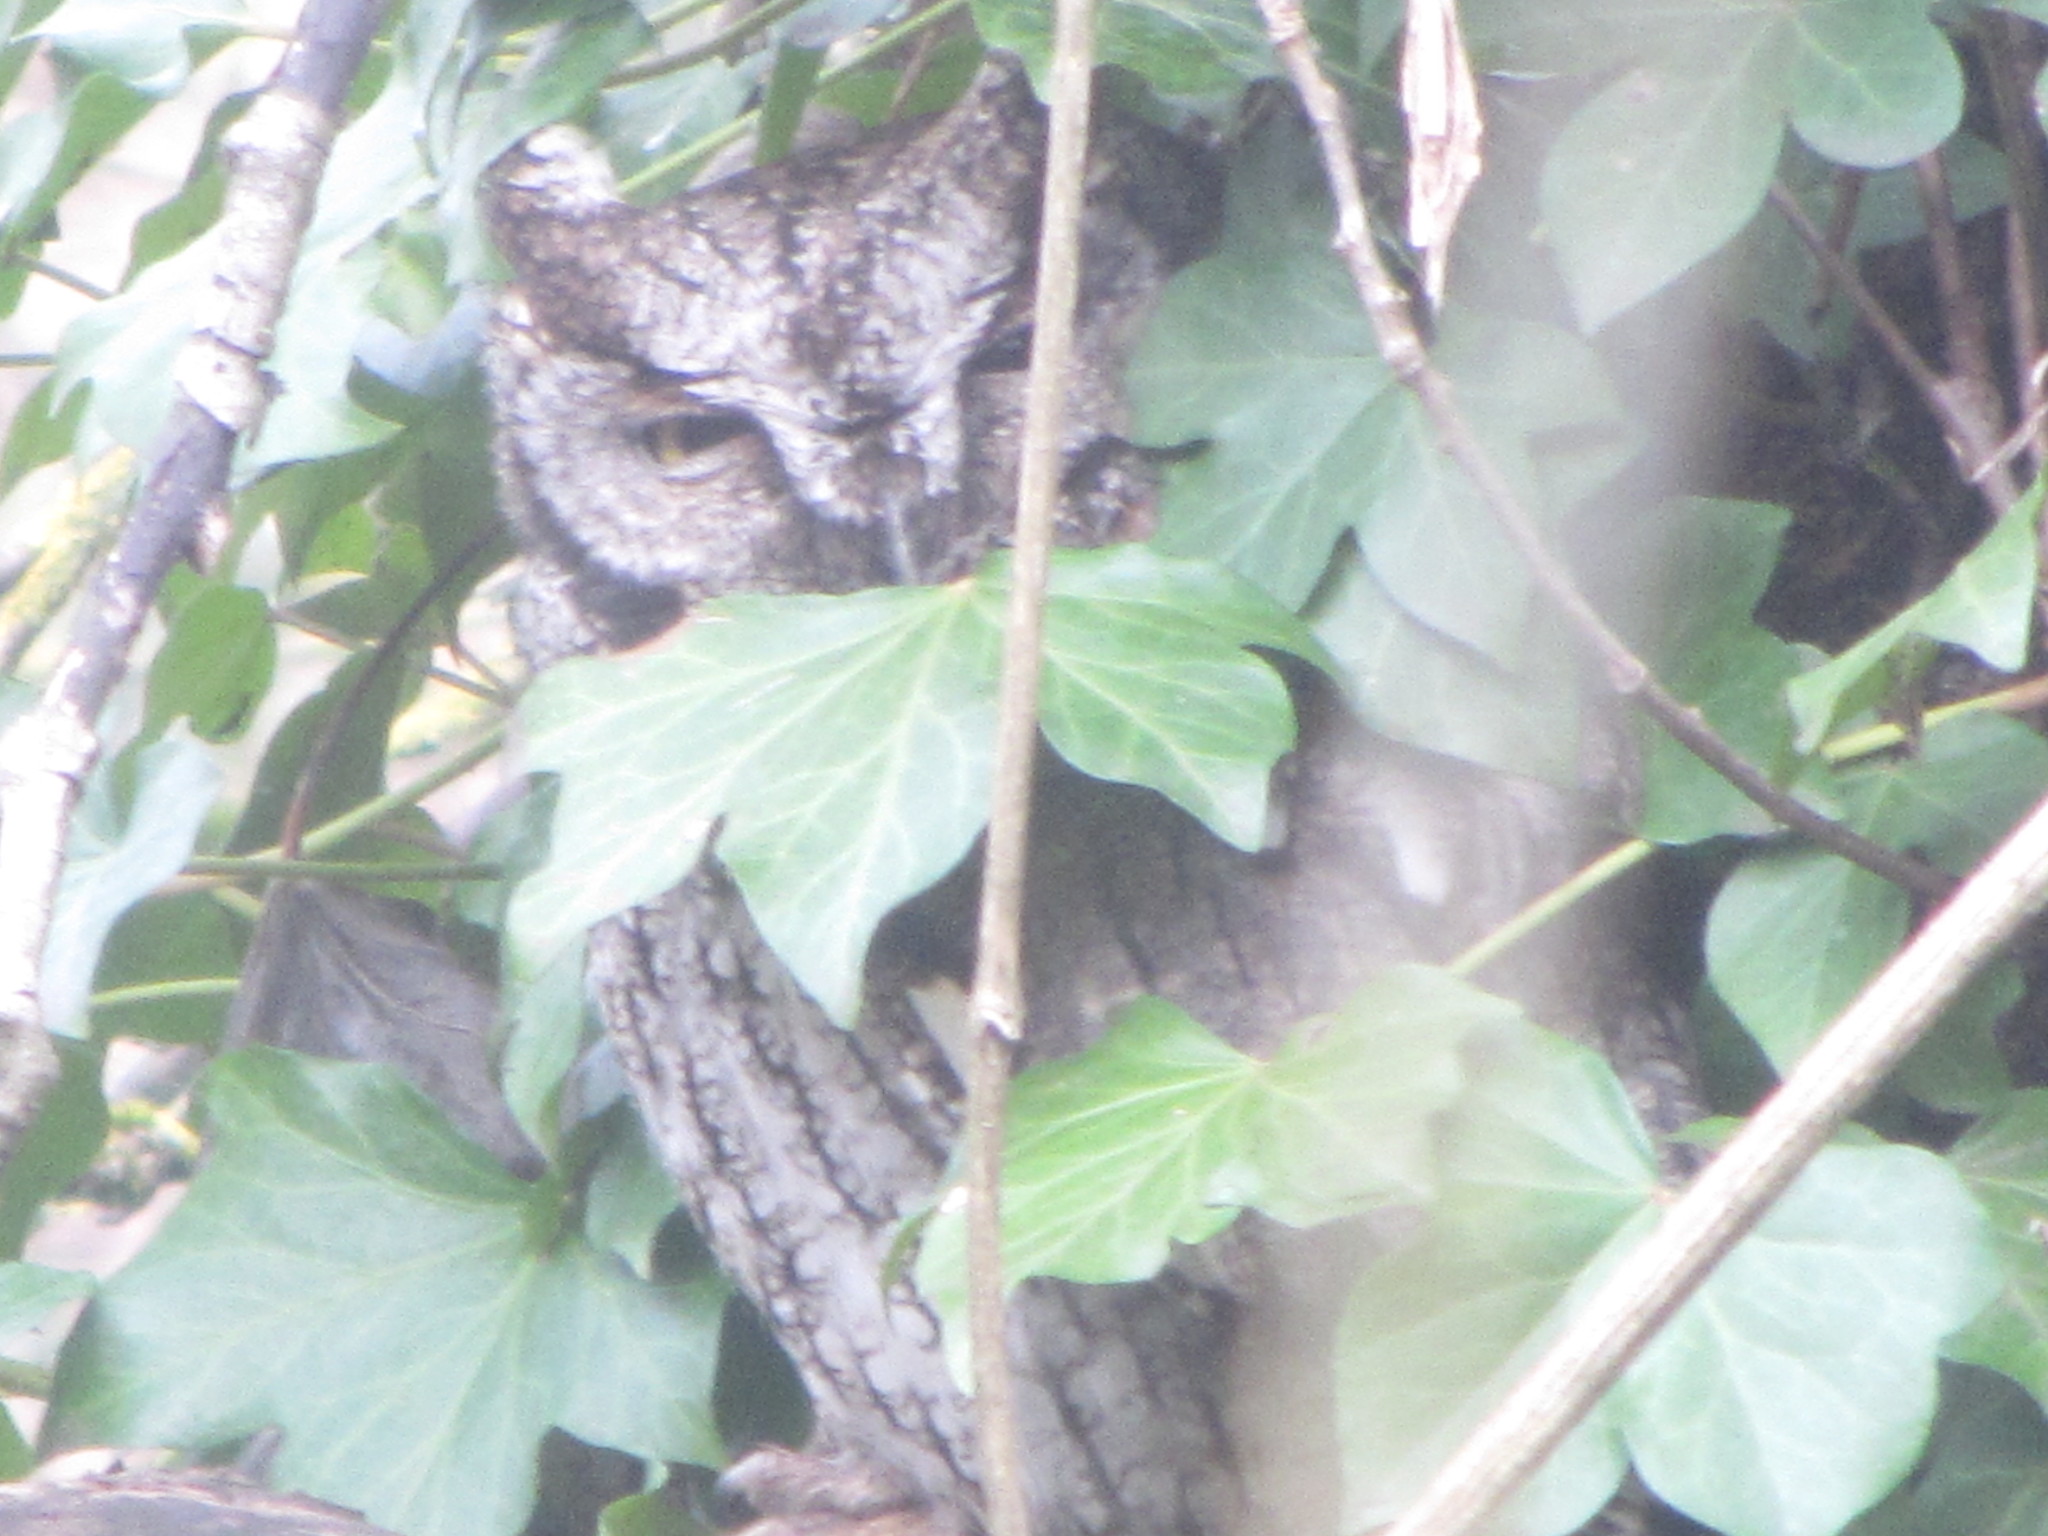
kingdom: Animalia
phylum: Chordata
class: Aves
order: Strigiformes
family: Strigidae
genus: Megascops
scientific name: Megascops kennicottii
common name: Western screech-owl
